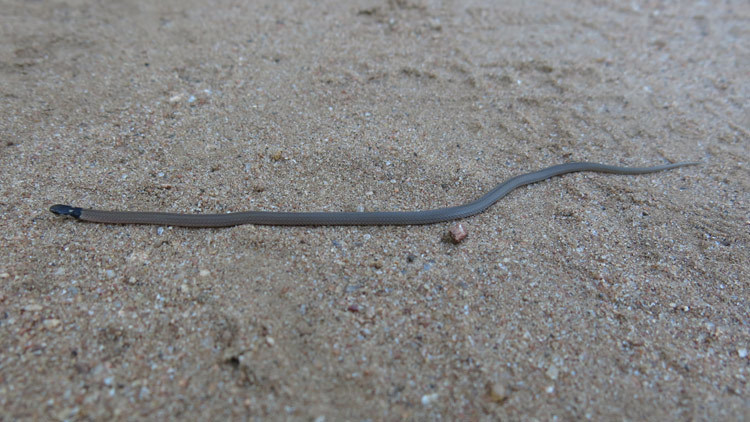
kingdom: Animalia
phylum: Chordata
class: Squamata
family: Atractaspididae
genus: Aparallactus
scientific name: Aparallactus capensis
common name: Cape centipede eater
